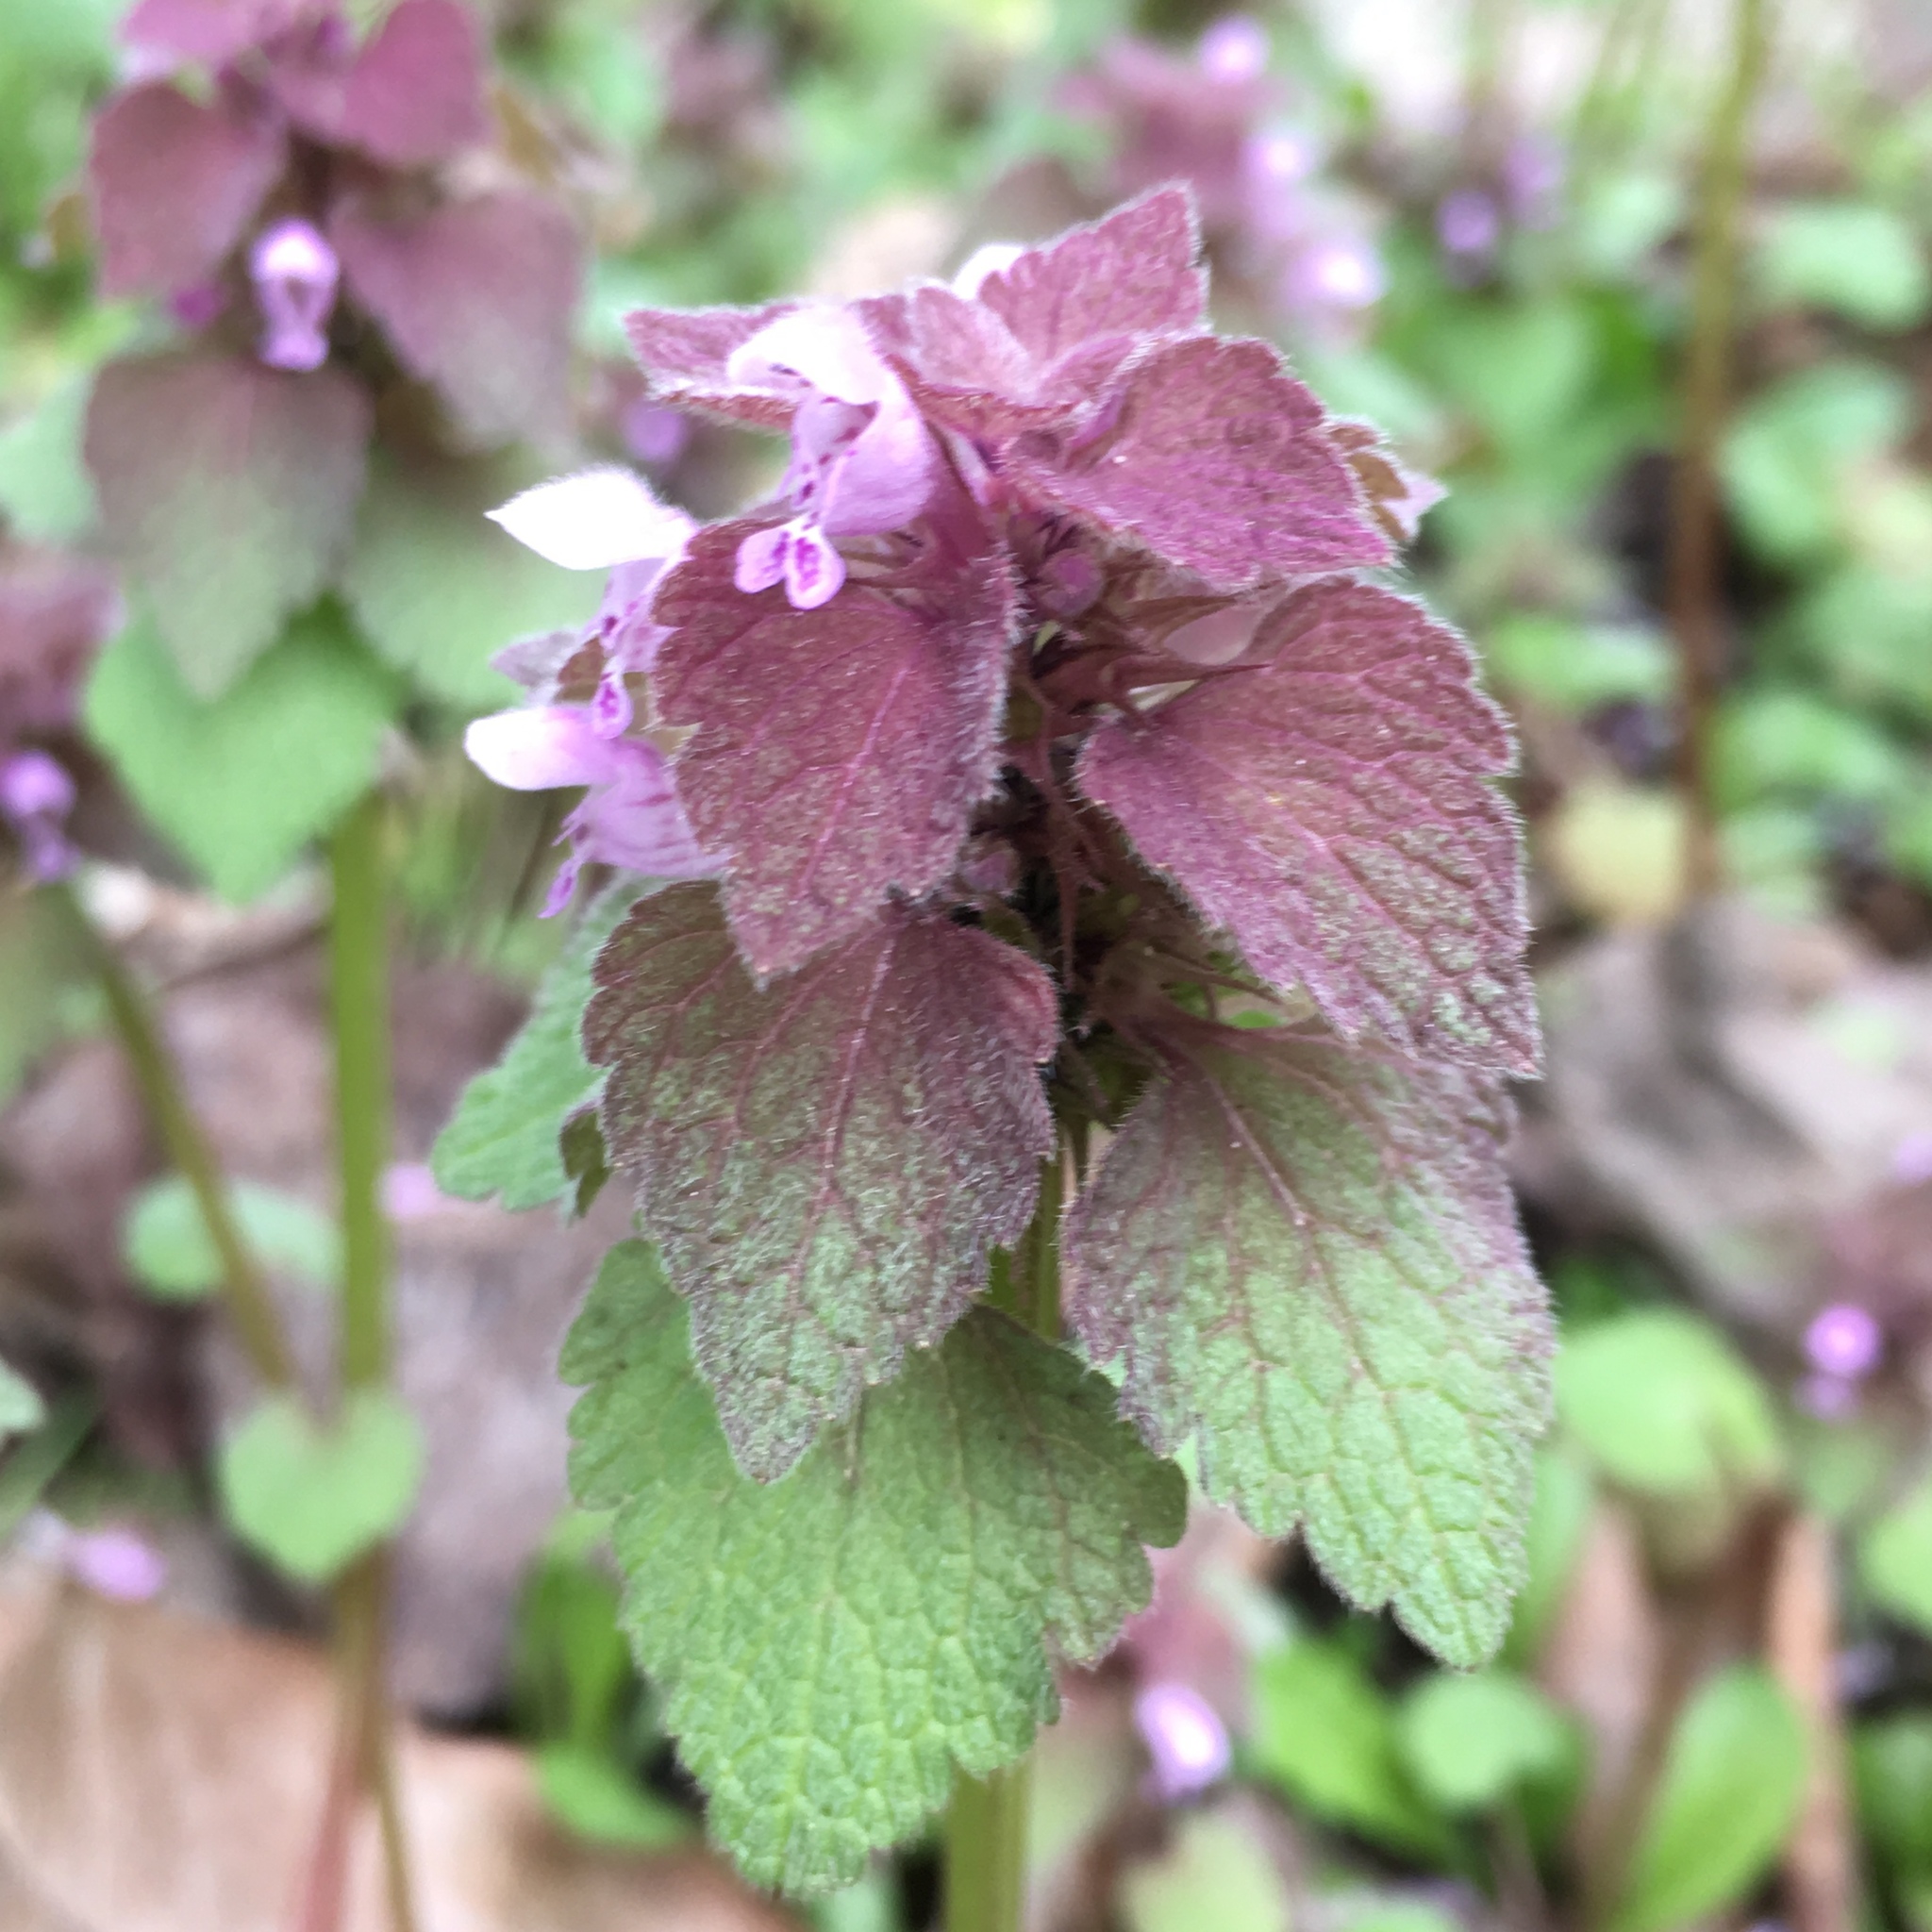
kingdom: Plantae
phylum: Tracheophyta
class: Magnoliopsida
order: Lamiales
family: Lamiaceae
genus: Lamium
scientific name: Lamium purpureum
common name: Red dead-nettle
